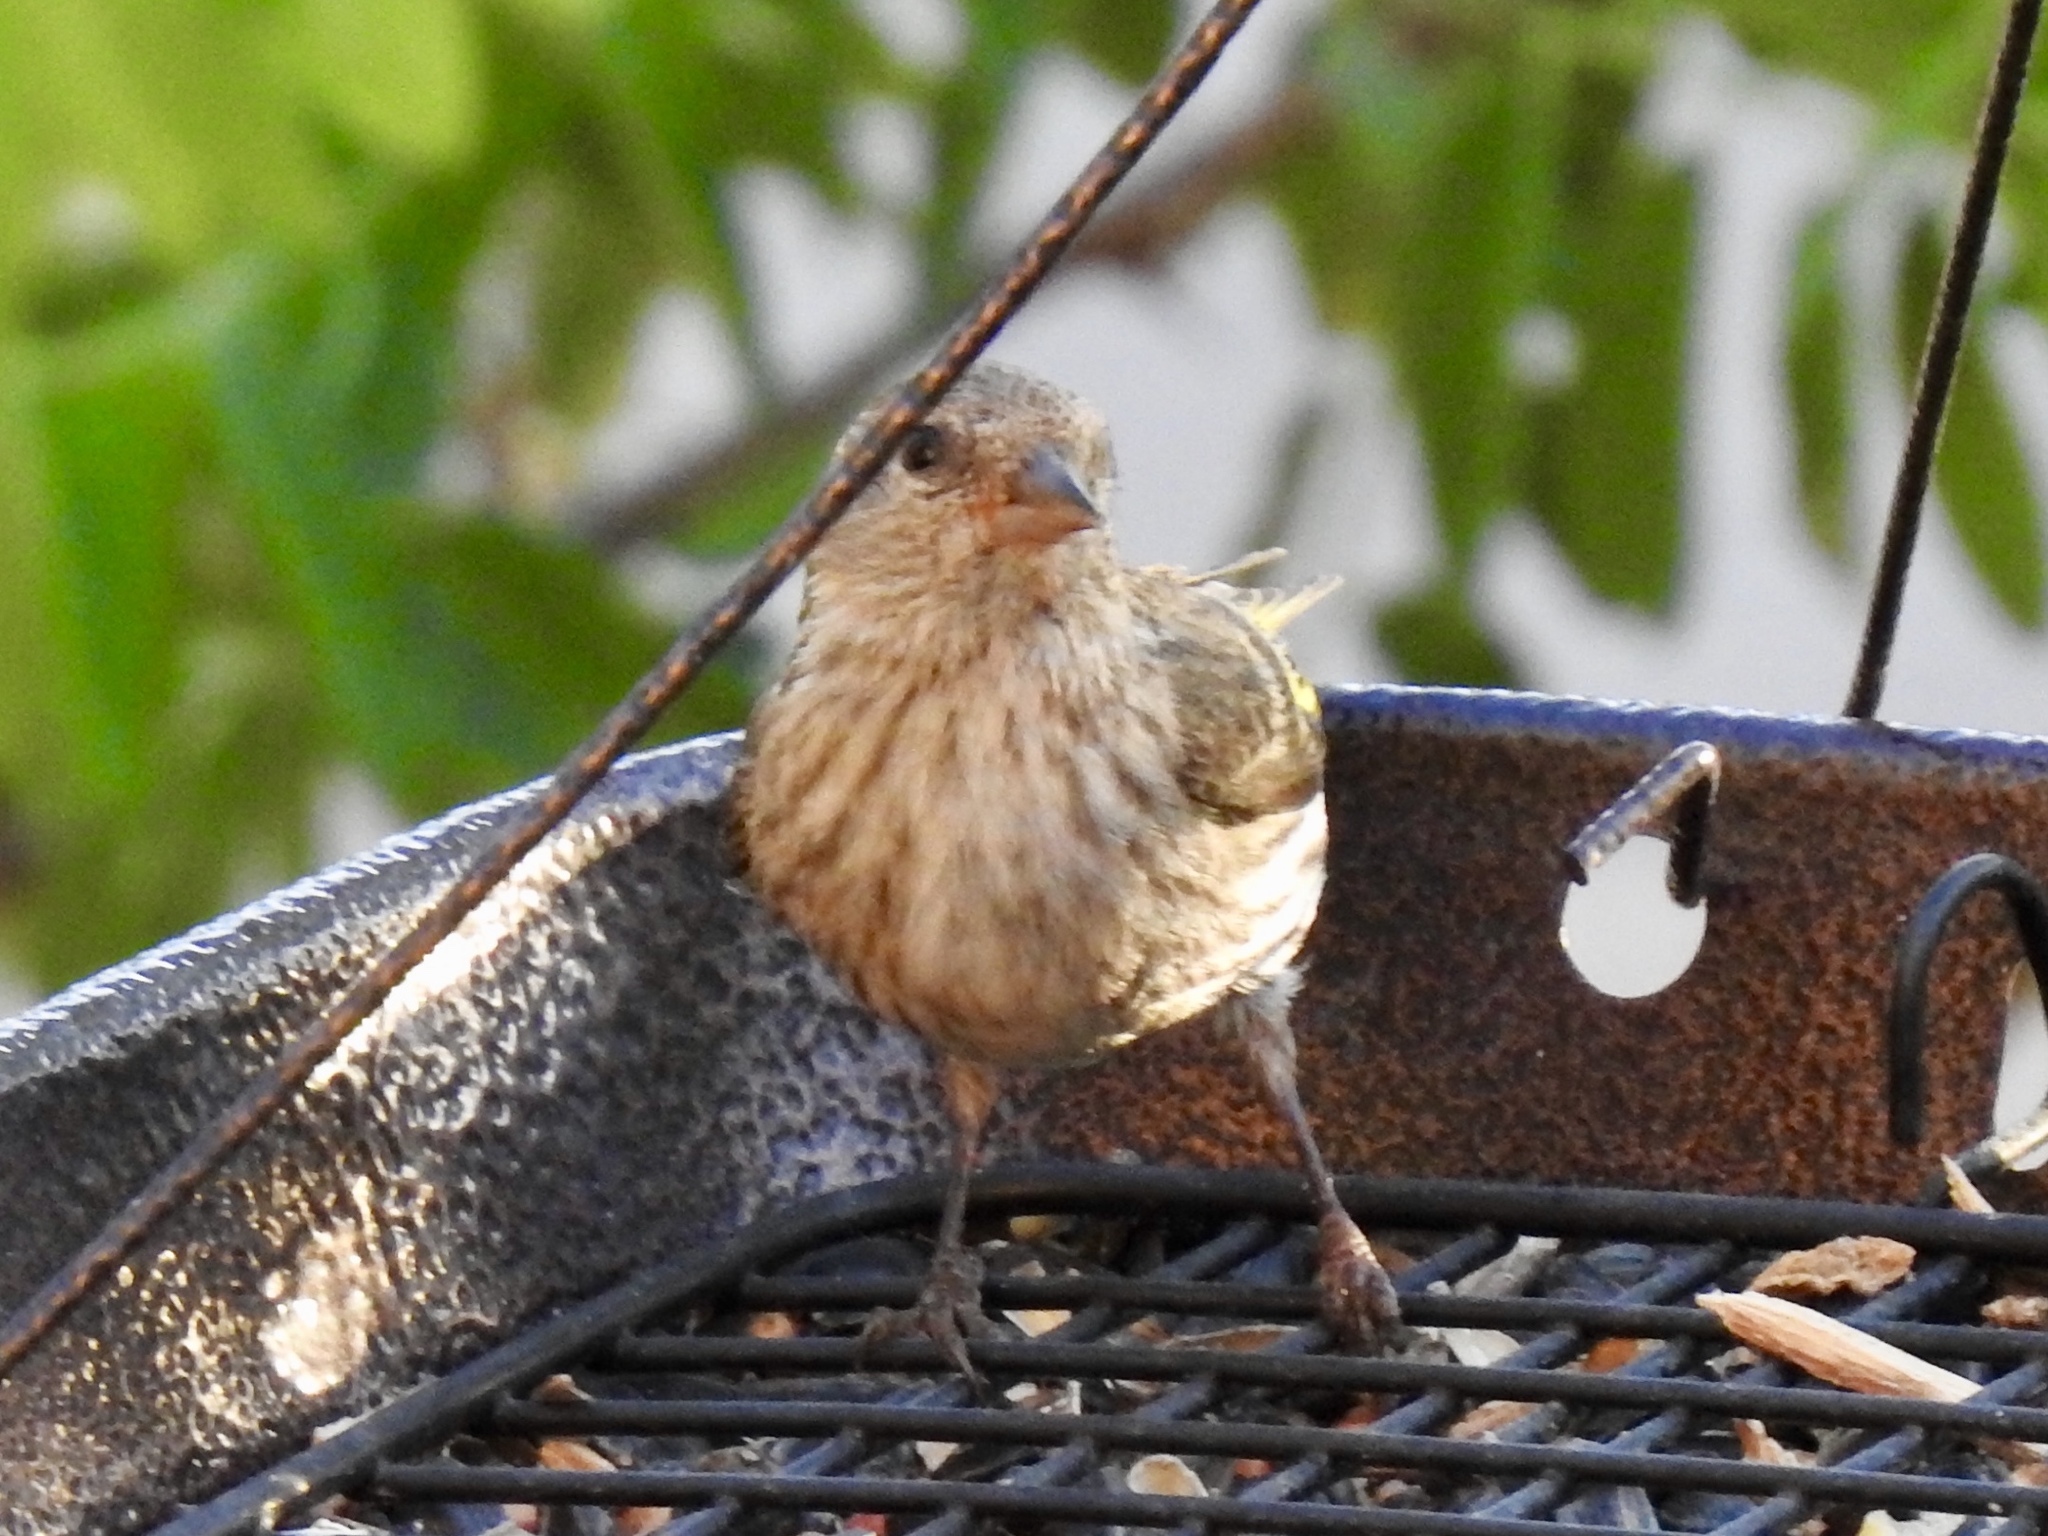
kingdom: Animalia
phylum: Chordata
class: Aves
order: Passeriformes
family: Fringillidae
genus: Spinus
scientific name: Spinus pinus
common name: Pine siskin
